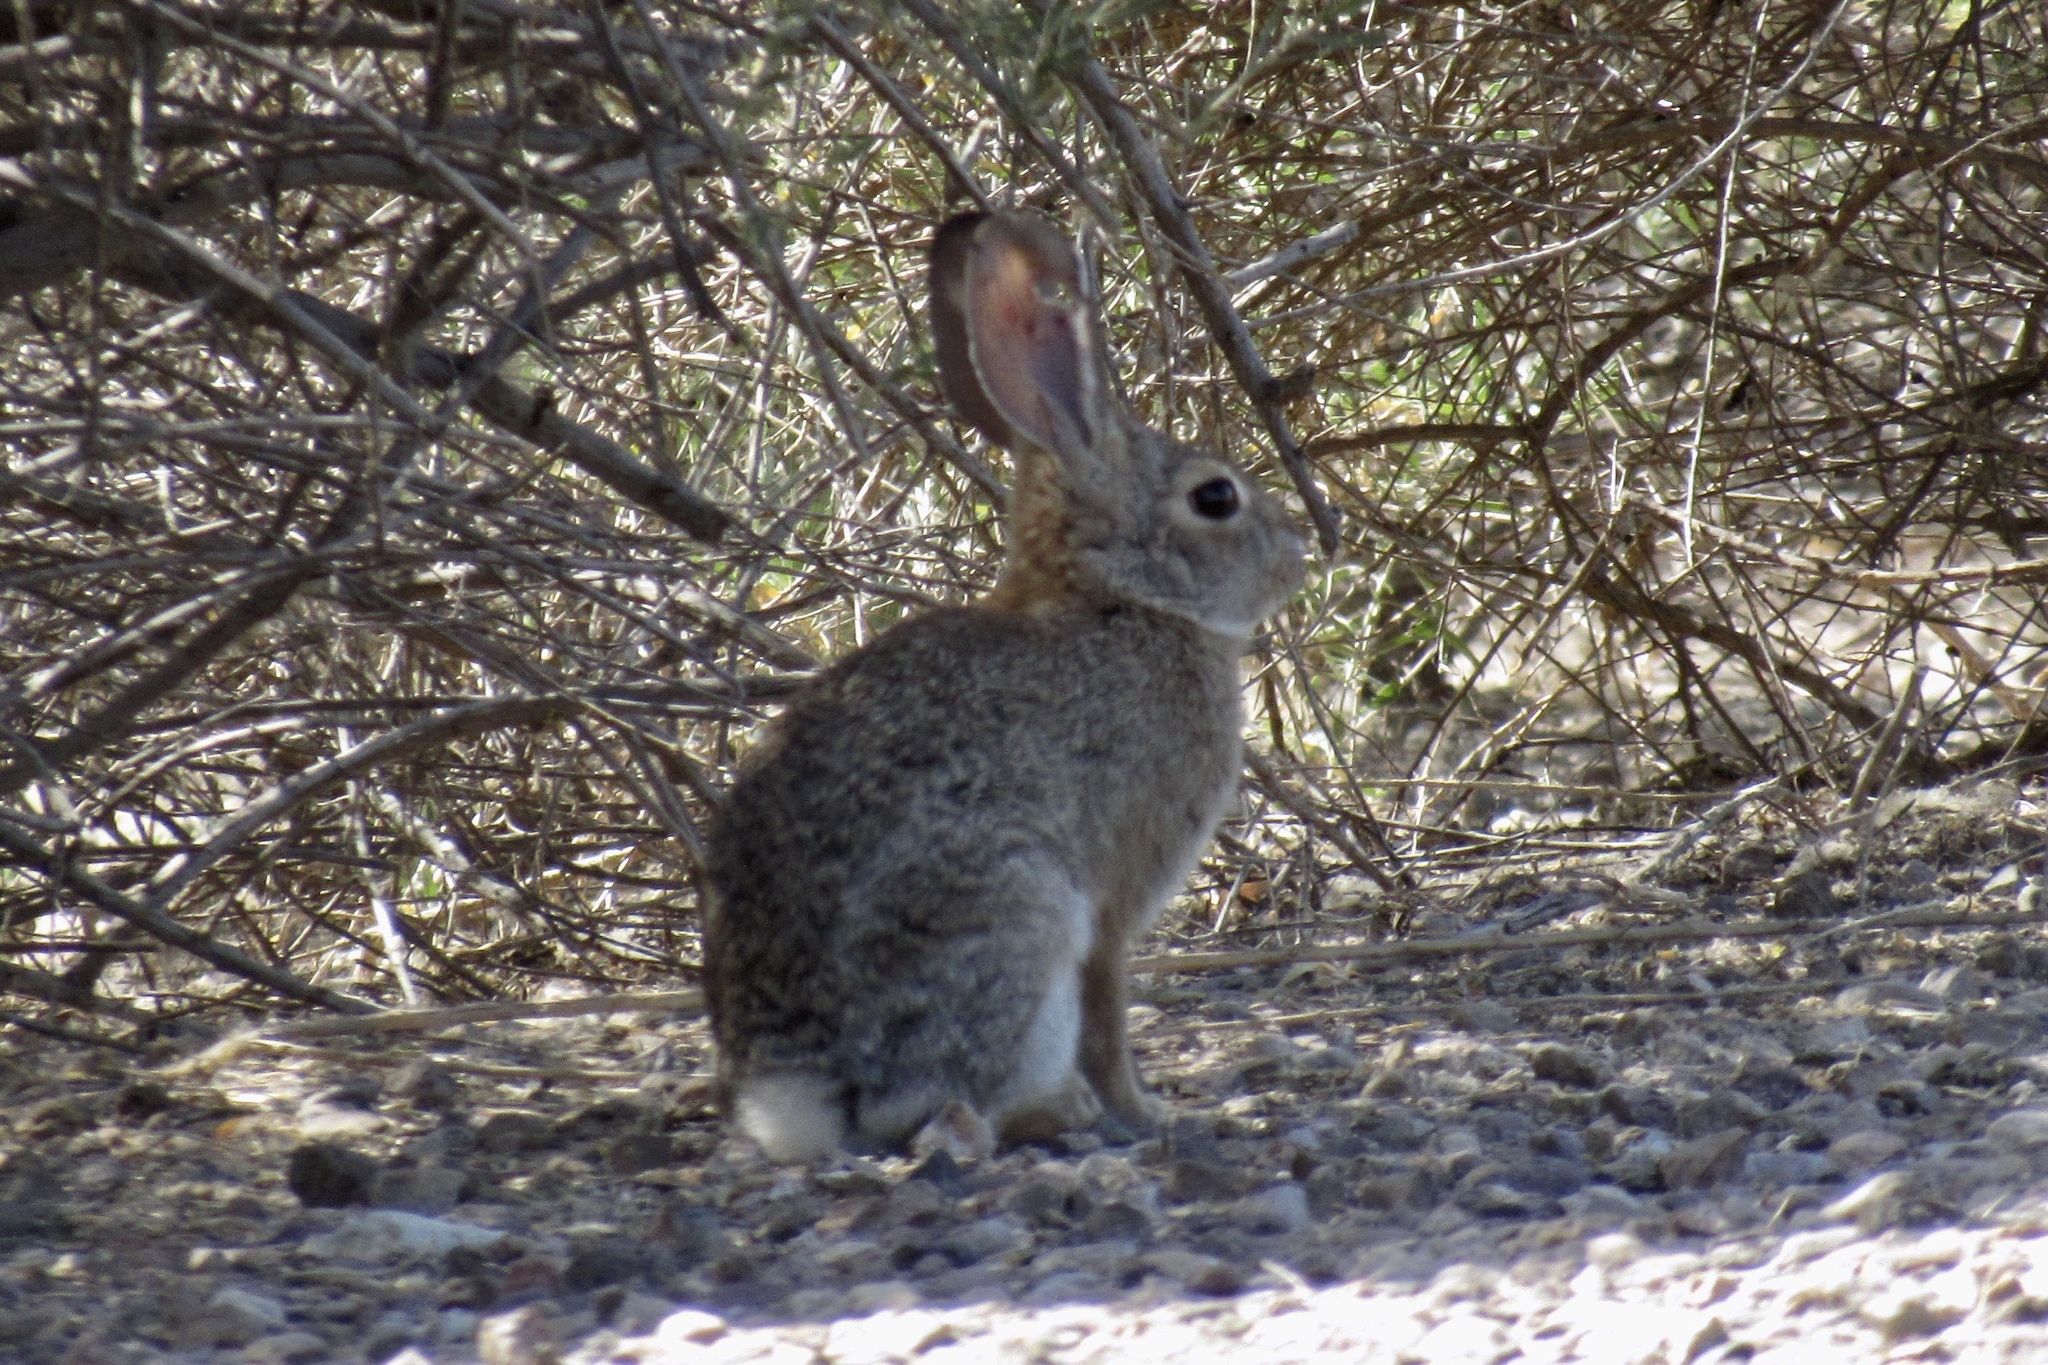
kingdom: Animalia
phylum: Chordata
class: Mammalia
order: Lagomorpha
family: Leporidae
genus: Sylvilagus
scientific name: Sylvilagus audubonii
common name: Desert cottontail
